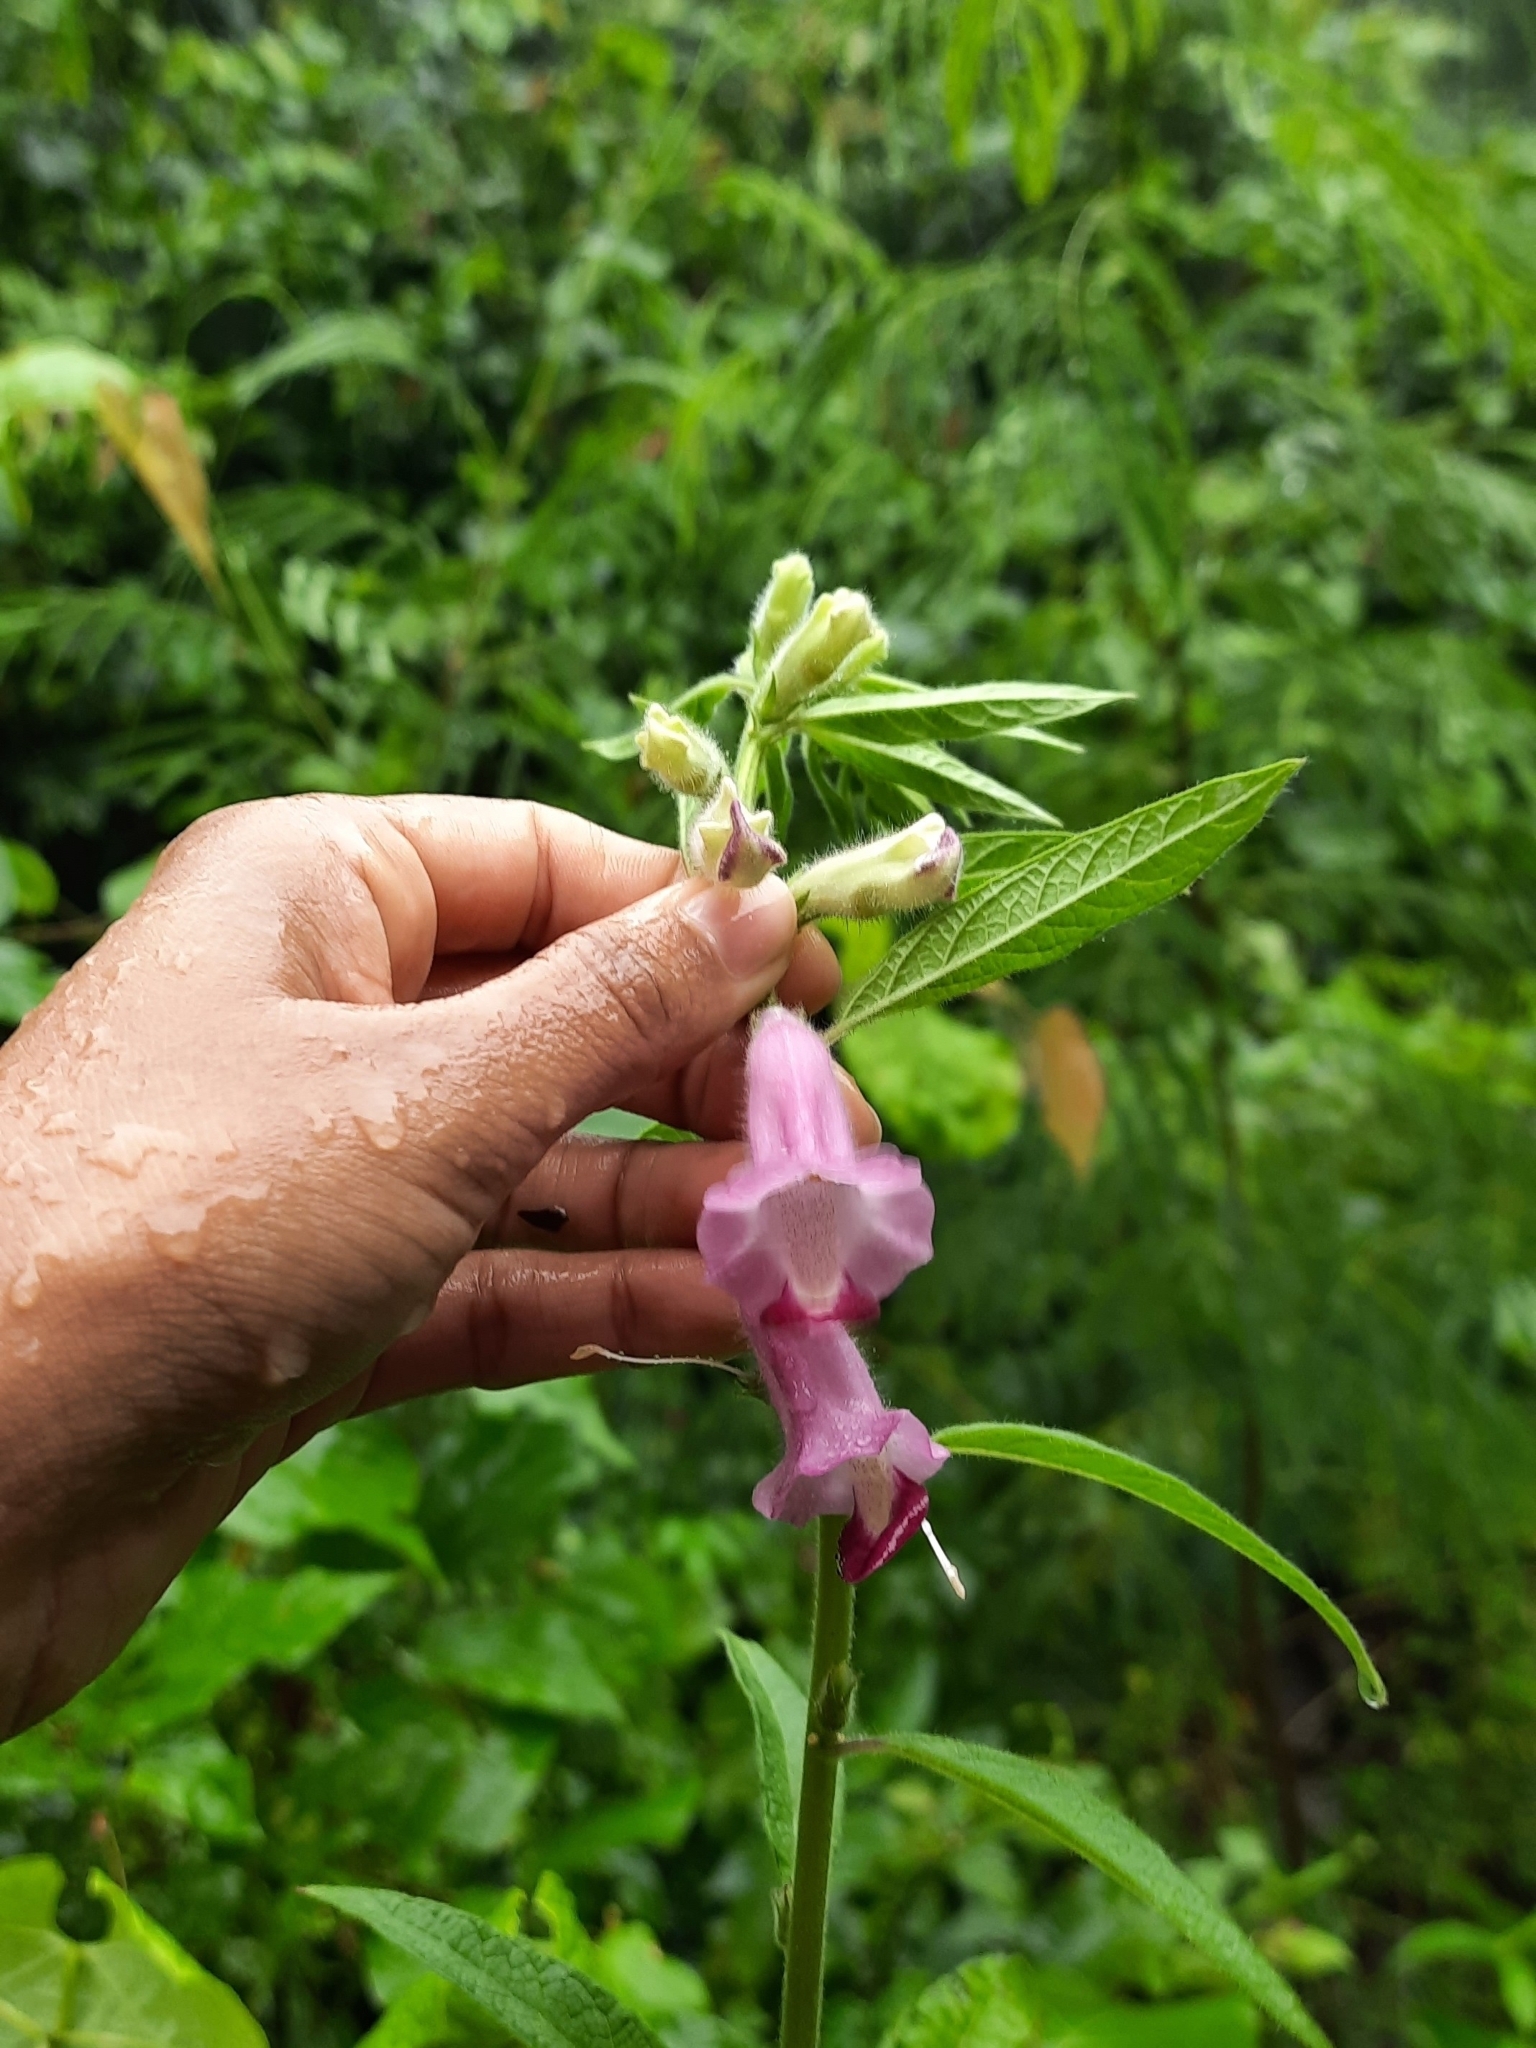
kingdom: Plantae
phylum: Tracheophyta
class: Magnoliopsida
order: Lamiales
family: Pedaliaceae
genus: Sesamum
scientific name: Sesamum indicum
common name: Sesame
